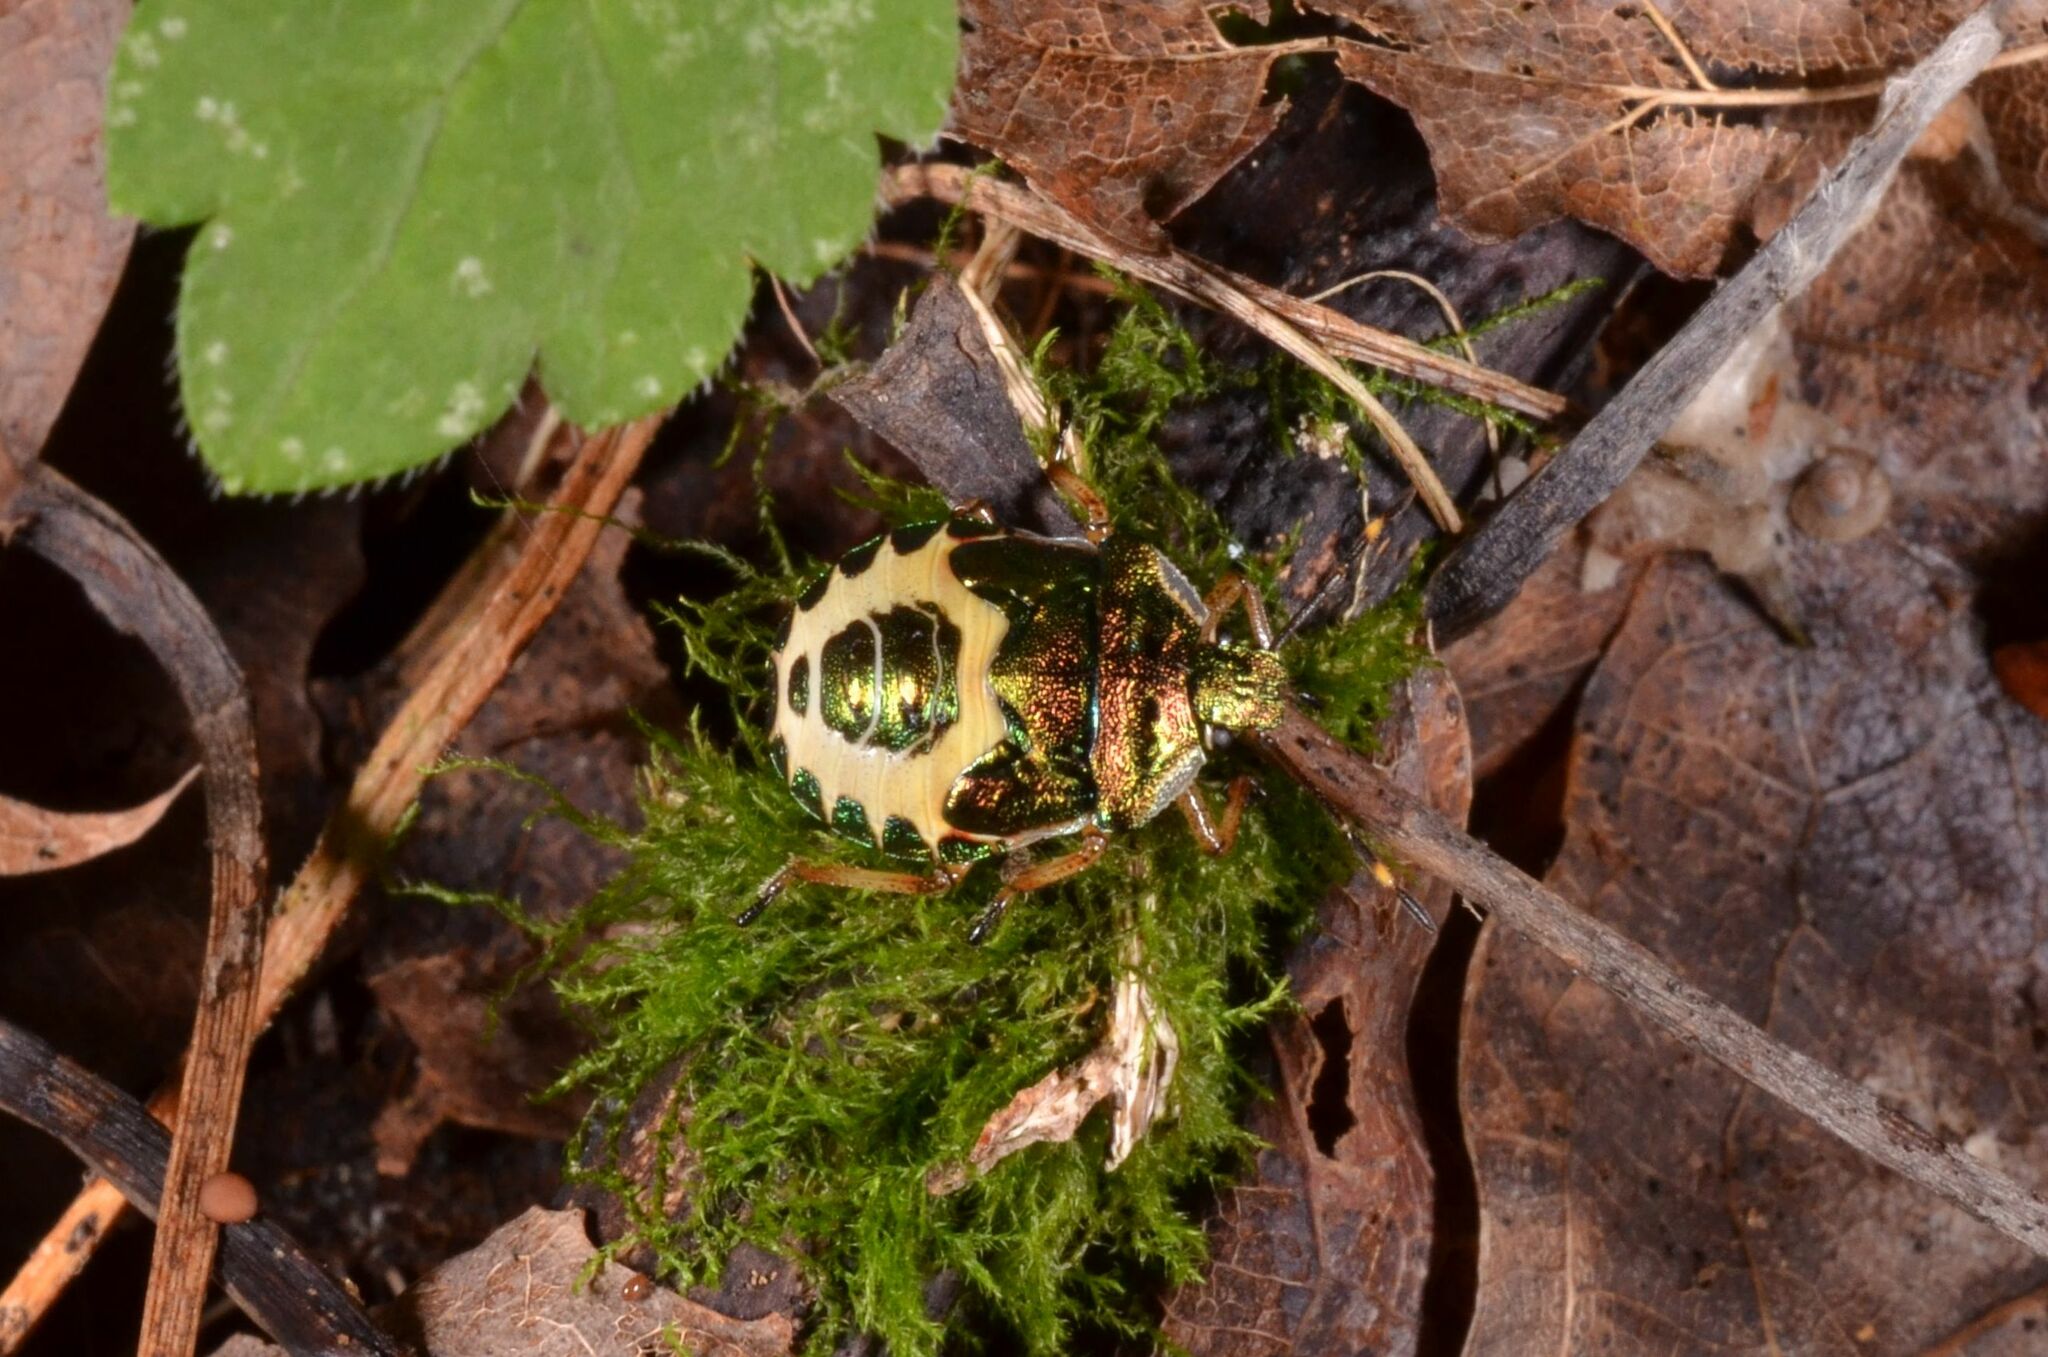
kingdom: Animalia
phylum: Arthropoda
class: Insecta
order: Hemiptera
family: Pentatomidae
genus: Troilus
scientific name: Troilus luridus
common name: Bronze shieldbug
